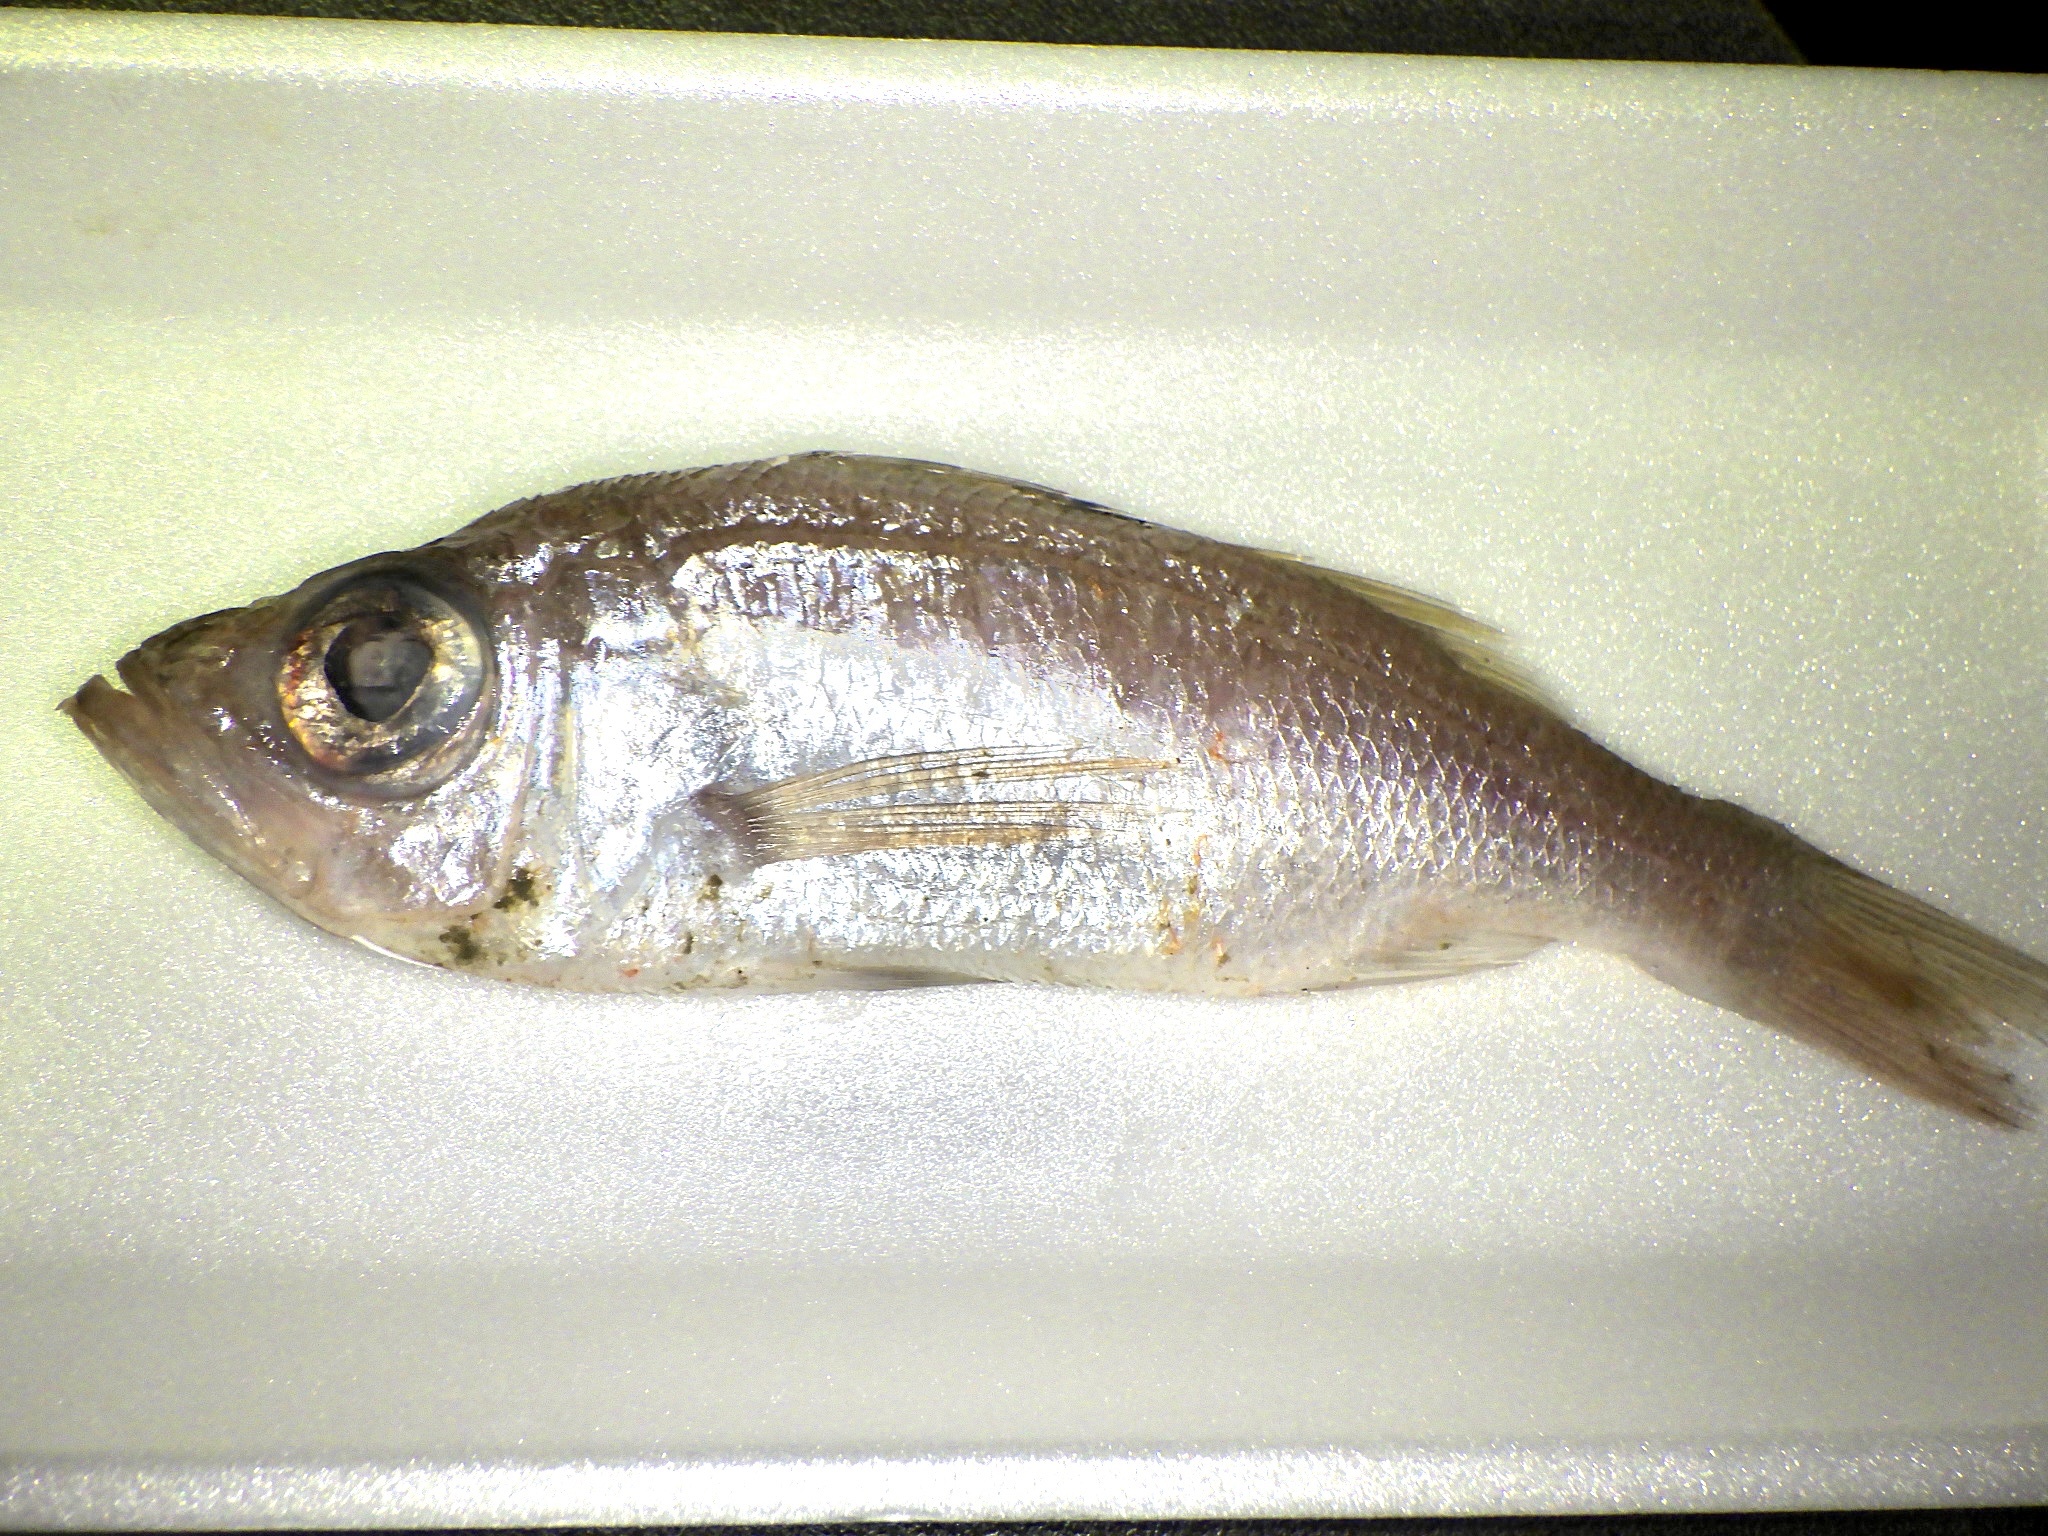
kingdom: Animalia
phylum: Chordata
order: Perciformes
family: Acropomatidae
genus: Malakichthys
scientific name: Malakichthys griseus
